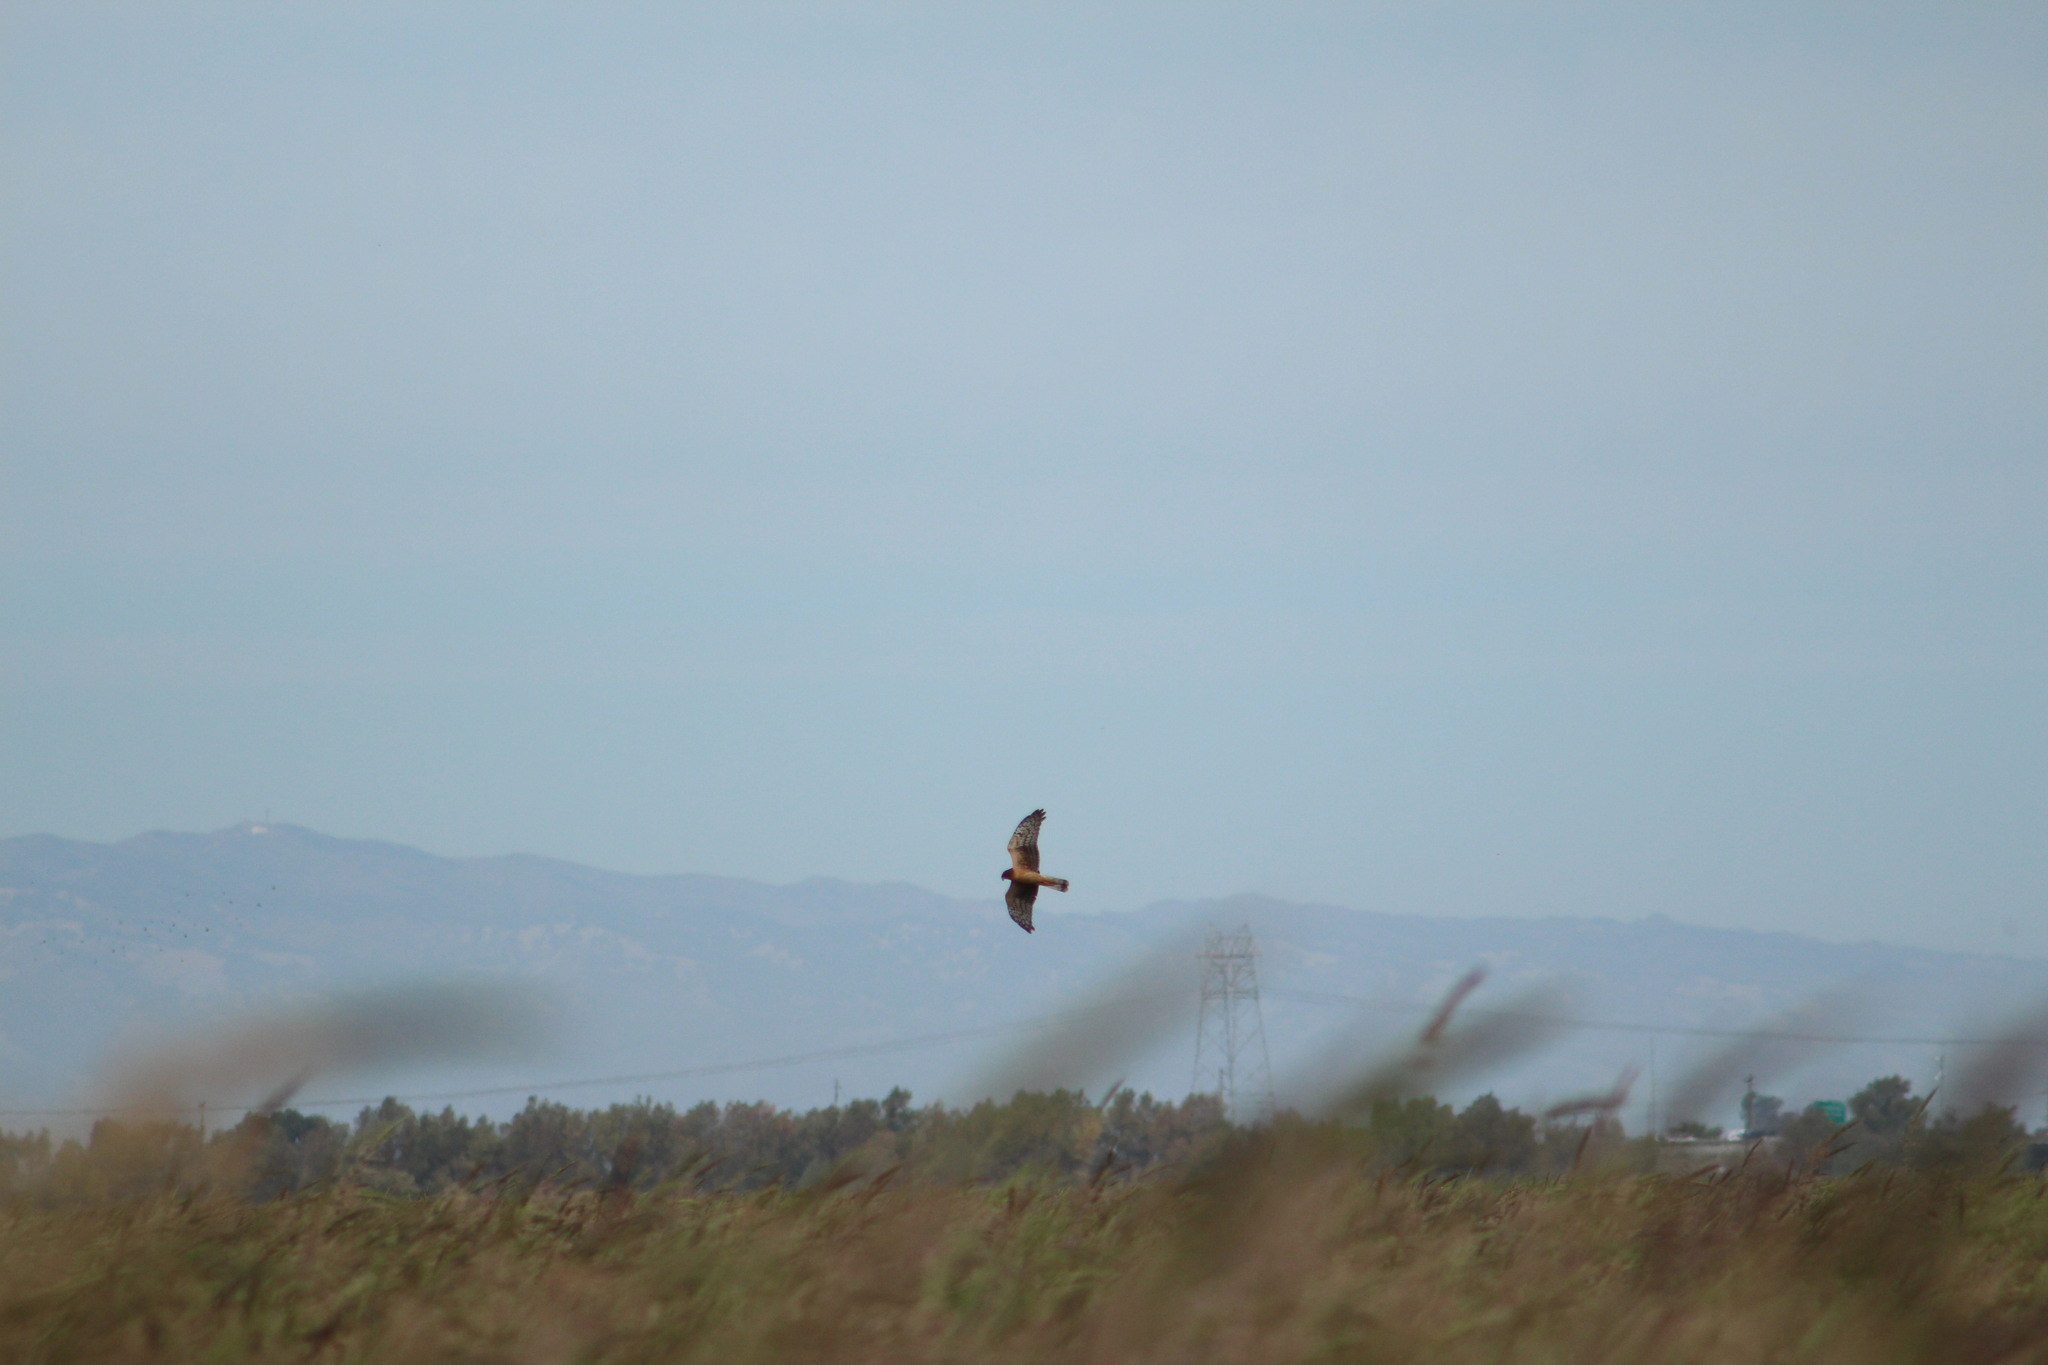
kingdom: Animalia
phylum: Chordata
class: Aves
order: Accipitriformes
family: Accipitridae
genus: Circus
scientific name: Circus cyaneus
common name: Hen harrier
